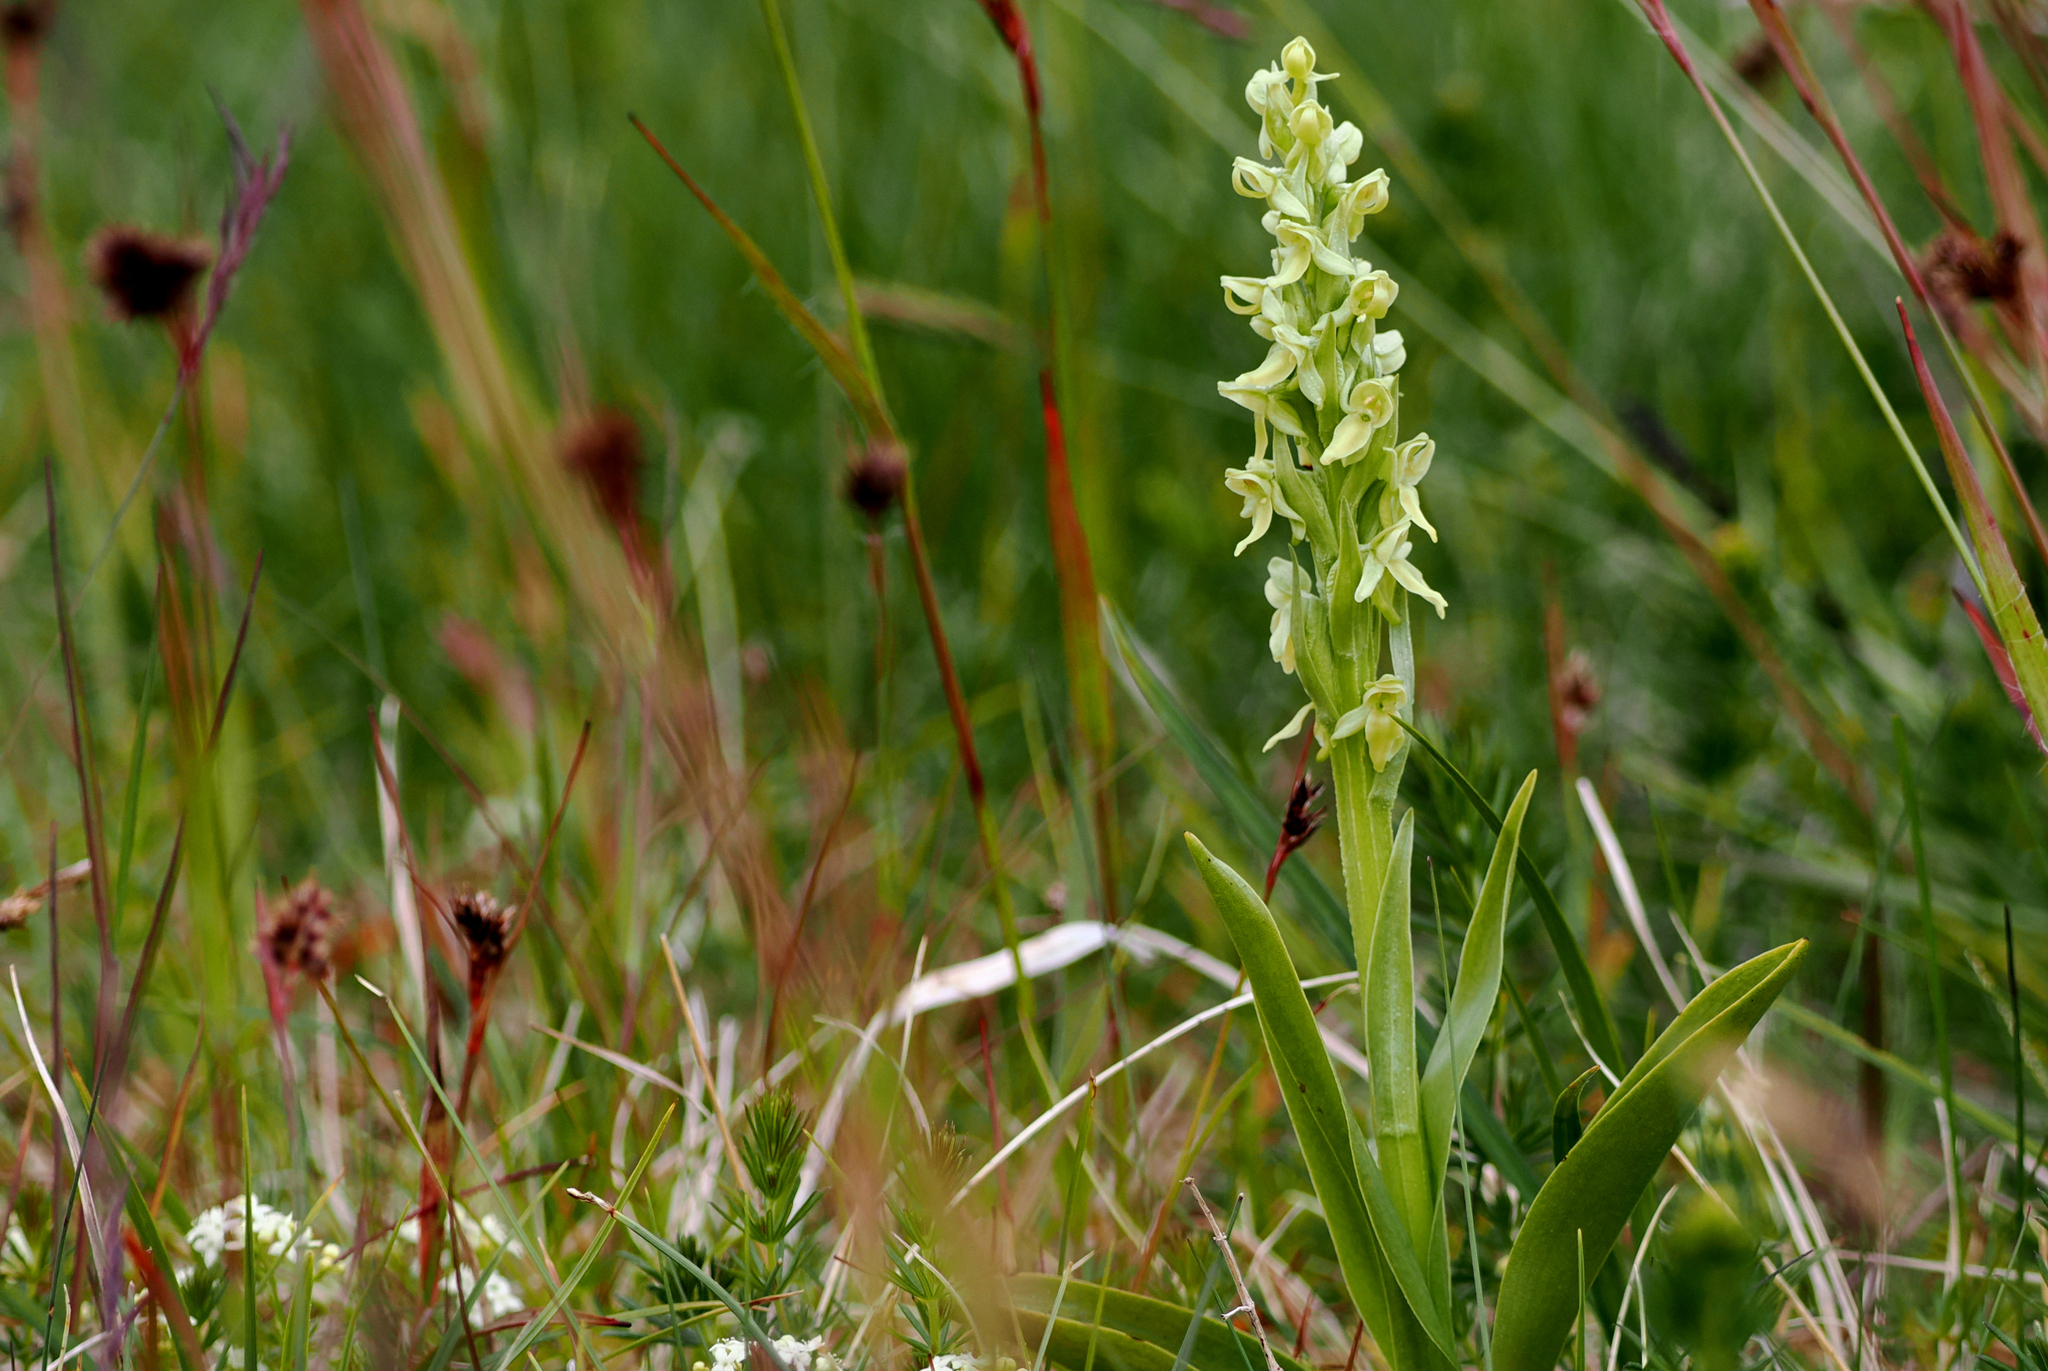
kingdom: Plantae
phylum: Tracheophyta
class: Liliopsida
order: Asparagales
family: Orchidaceae
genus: Platanthera
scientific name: Platanthera hyperborea
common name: Northern green orchid
